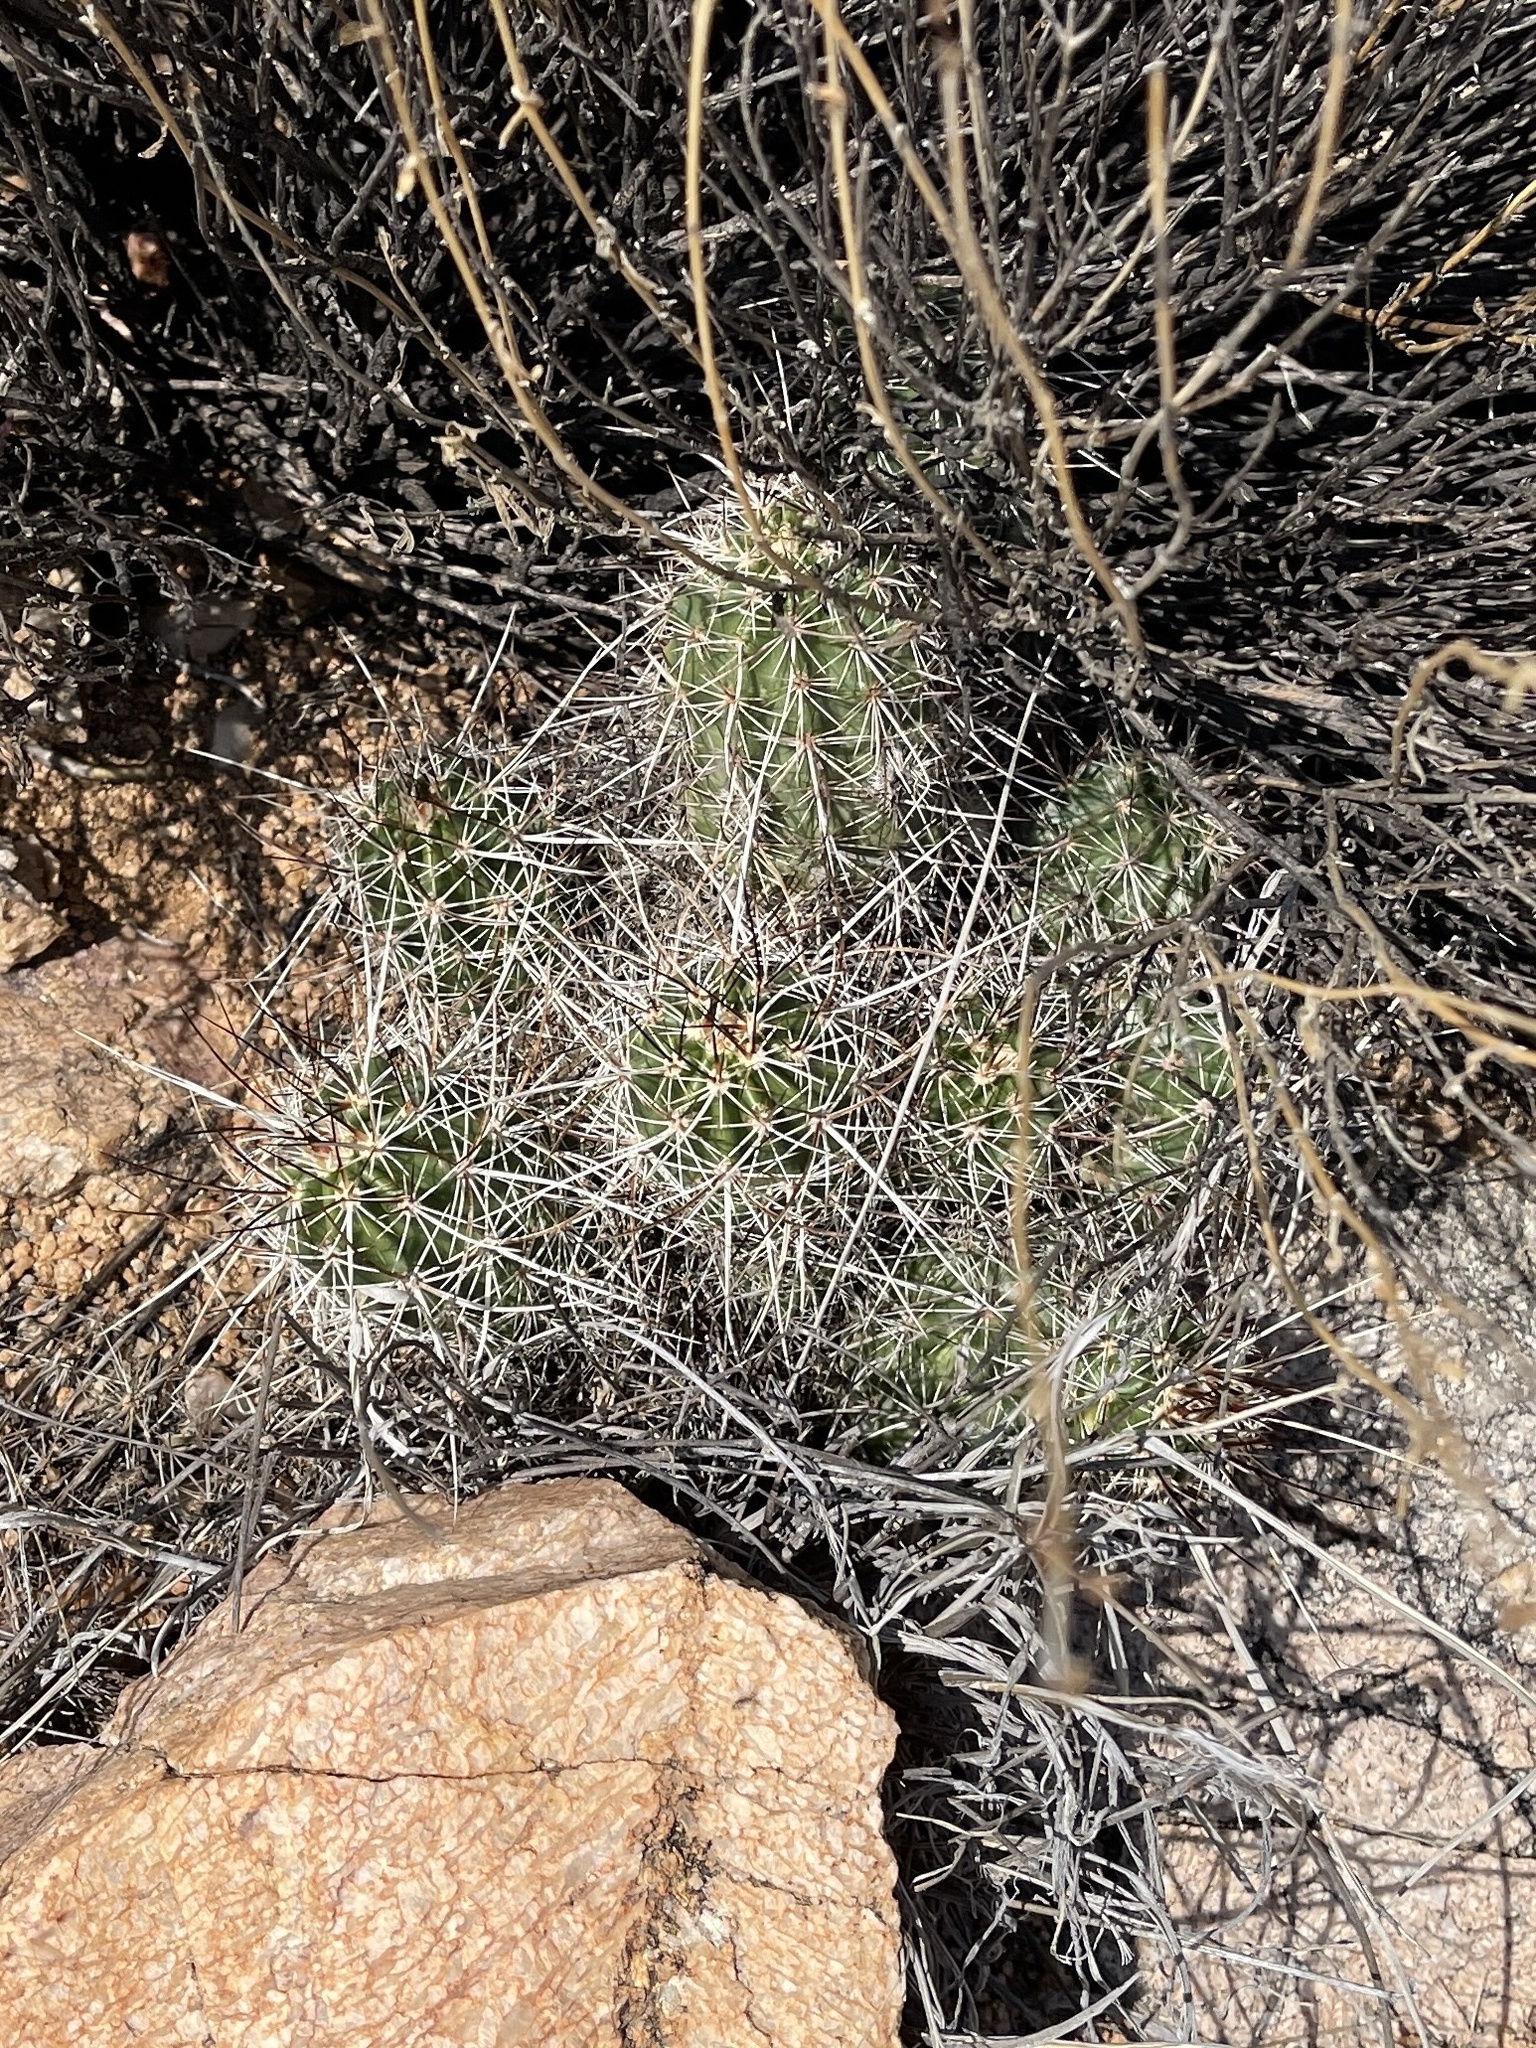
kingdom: Plantae
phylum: Tracheophyta
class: Magnoliopsida
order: Caryophyllales
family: Cactaceae
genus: Echinocereus
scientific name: Echinocereus engelmannii
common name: Engelmann's hedgehog cactus
